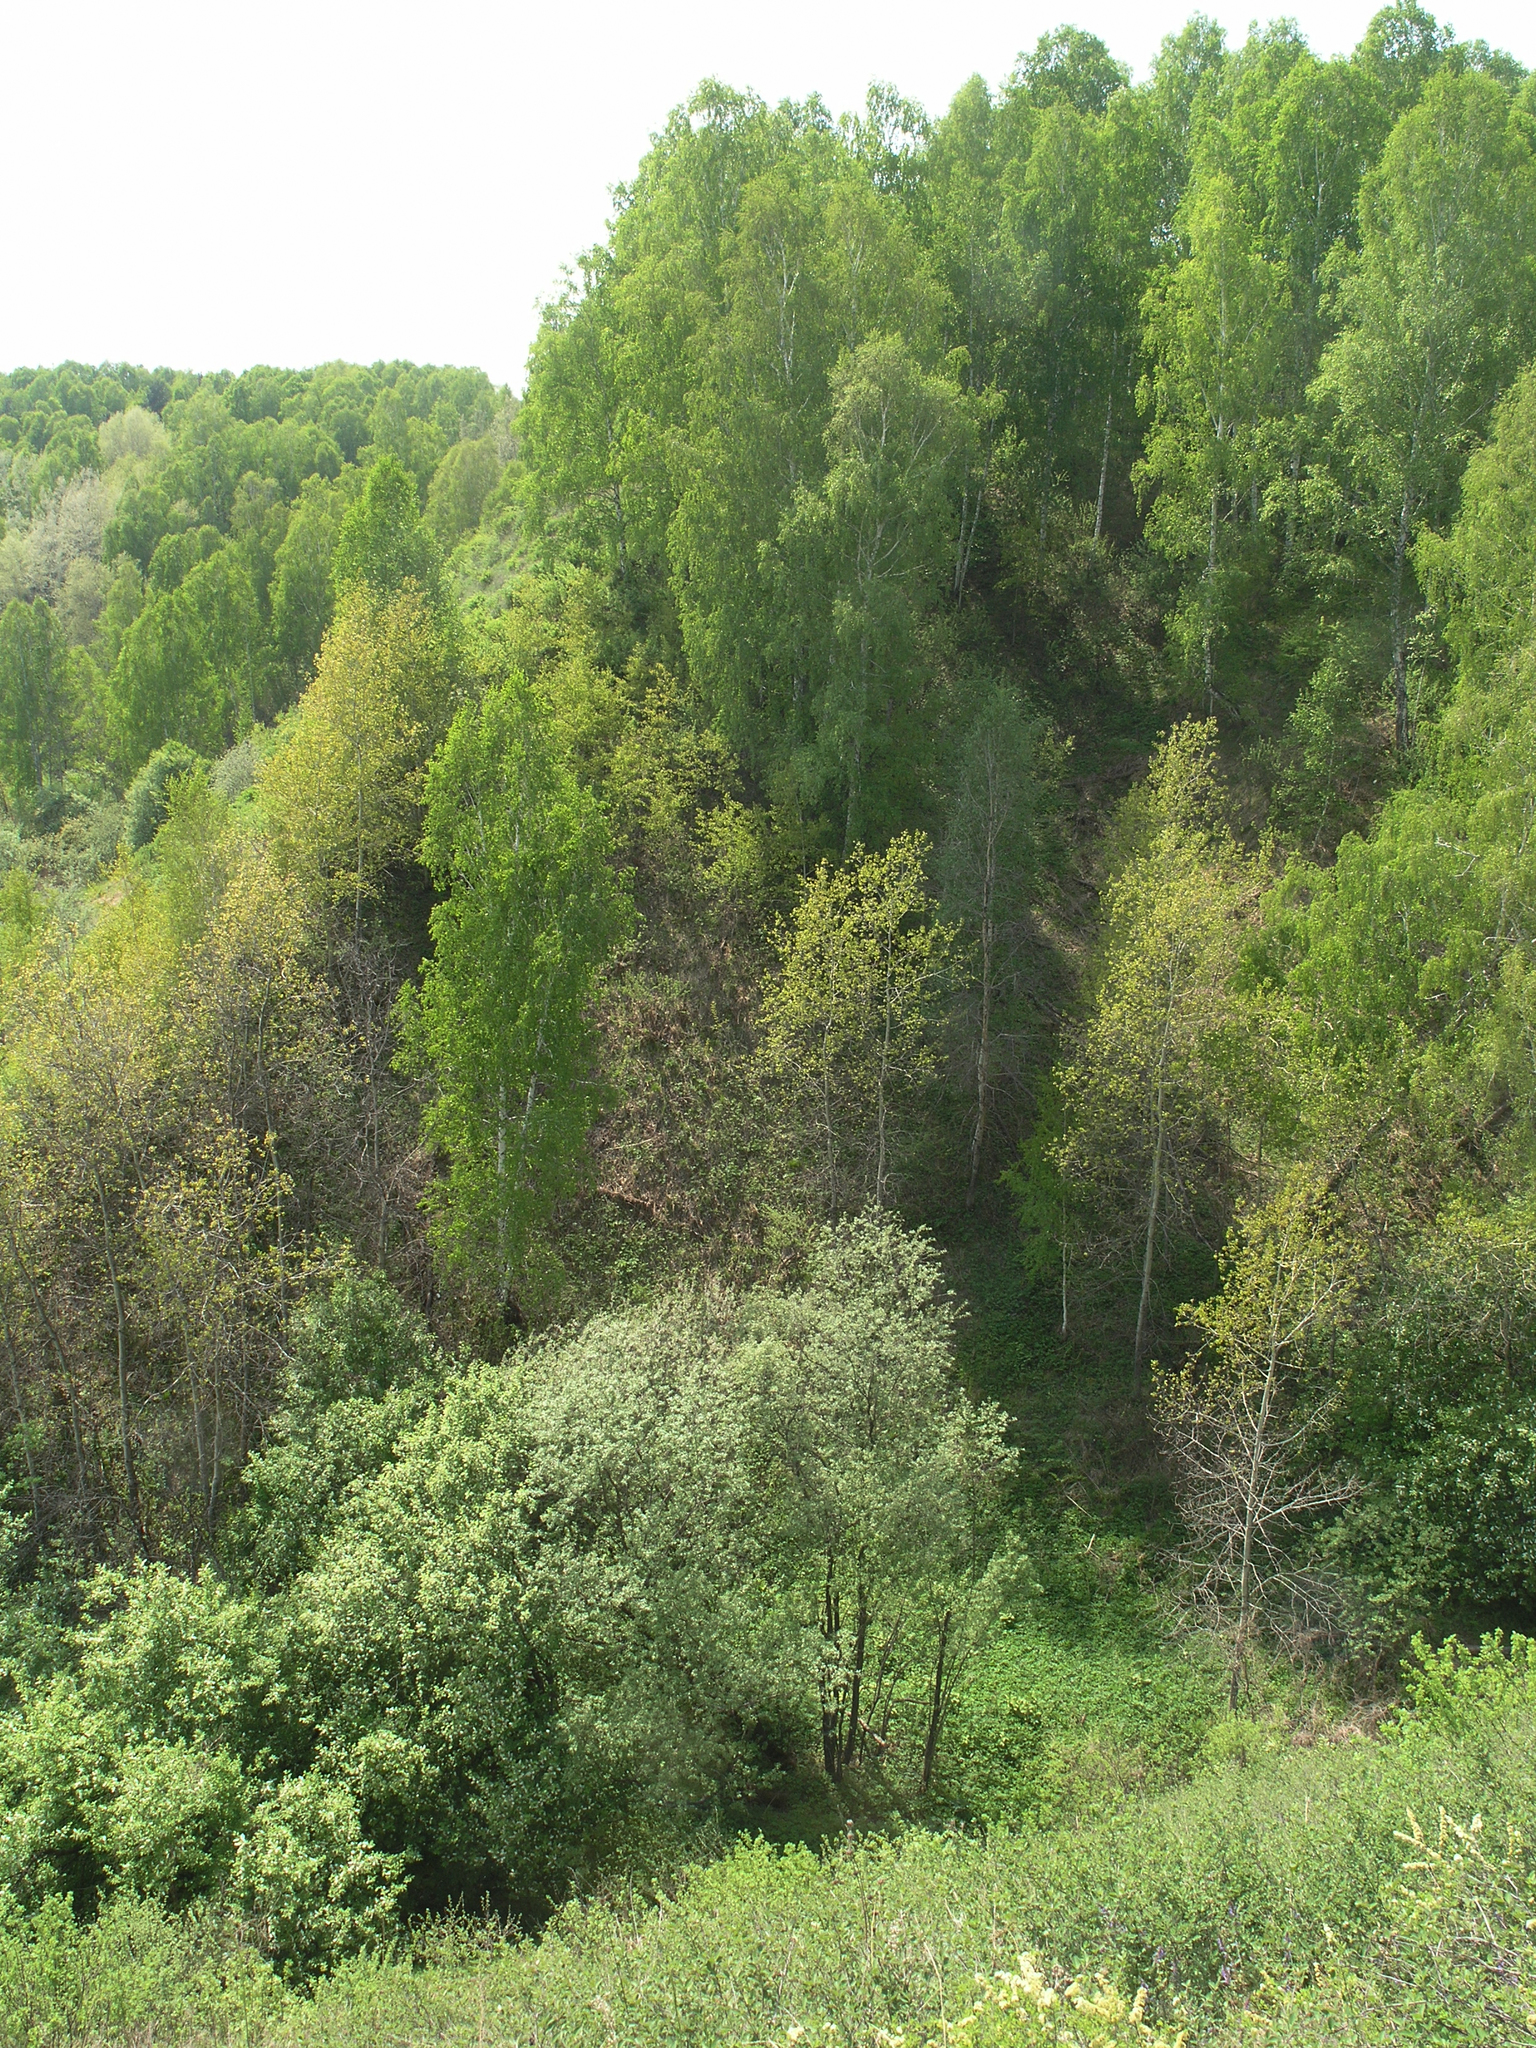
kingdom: Plantae
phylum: Tracheophyta
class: Magnoliopsida
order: Fagales
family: Betulaceae
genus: Betula
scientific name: Betula pendula
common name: Silver birch
